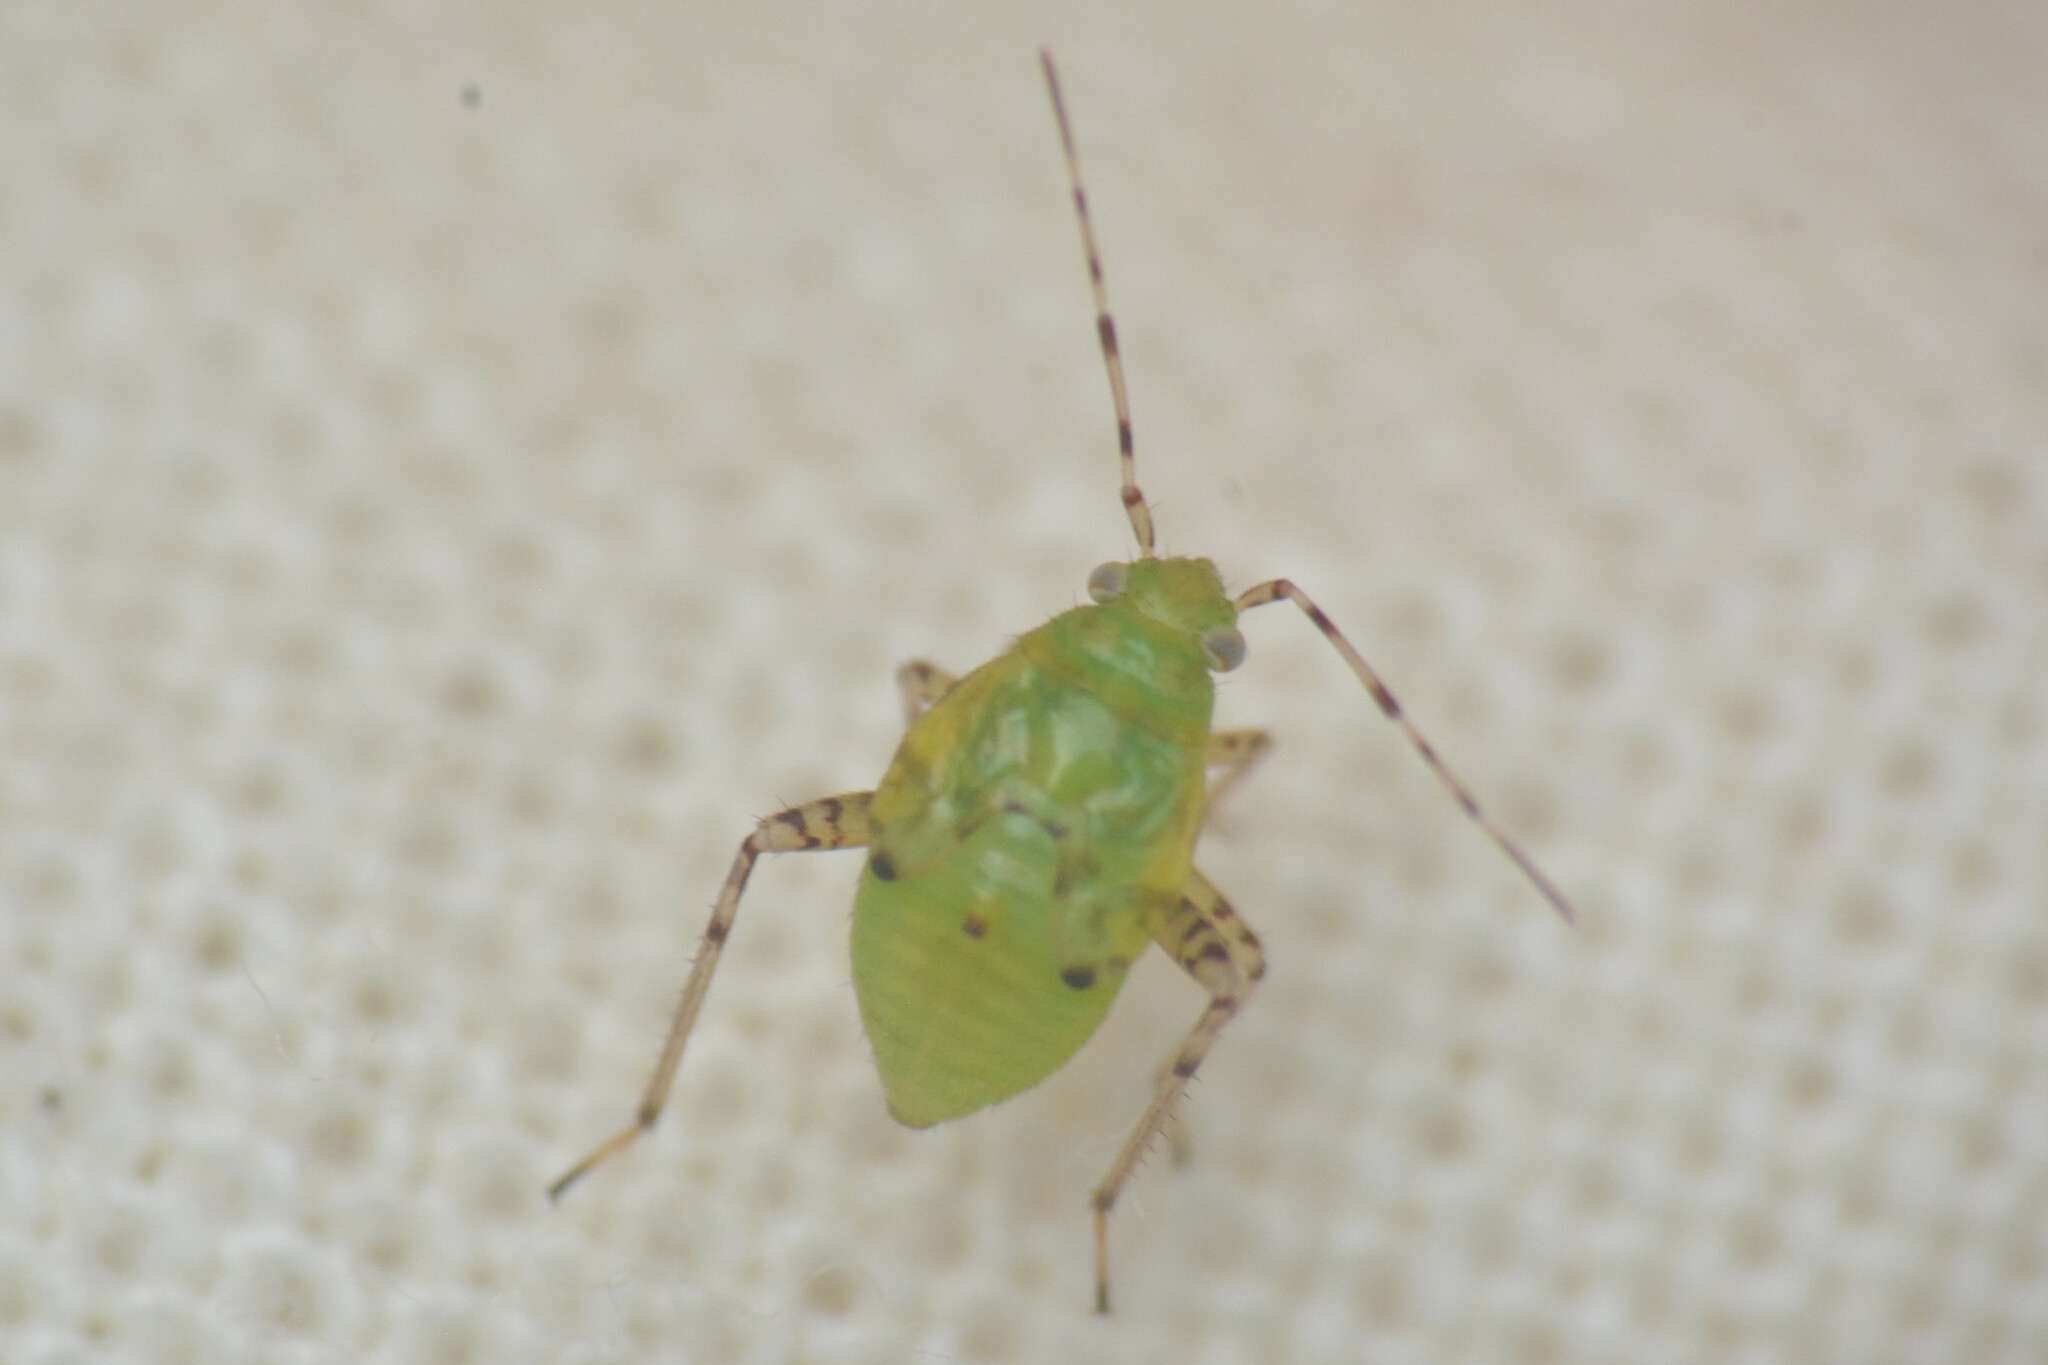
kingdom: Animalia
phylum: Arthropoda
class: Insecta
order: Hemiptera
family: Miridae
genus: Liocoris
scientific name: Liocoris tripustulatus
